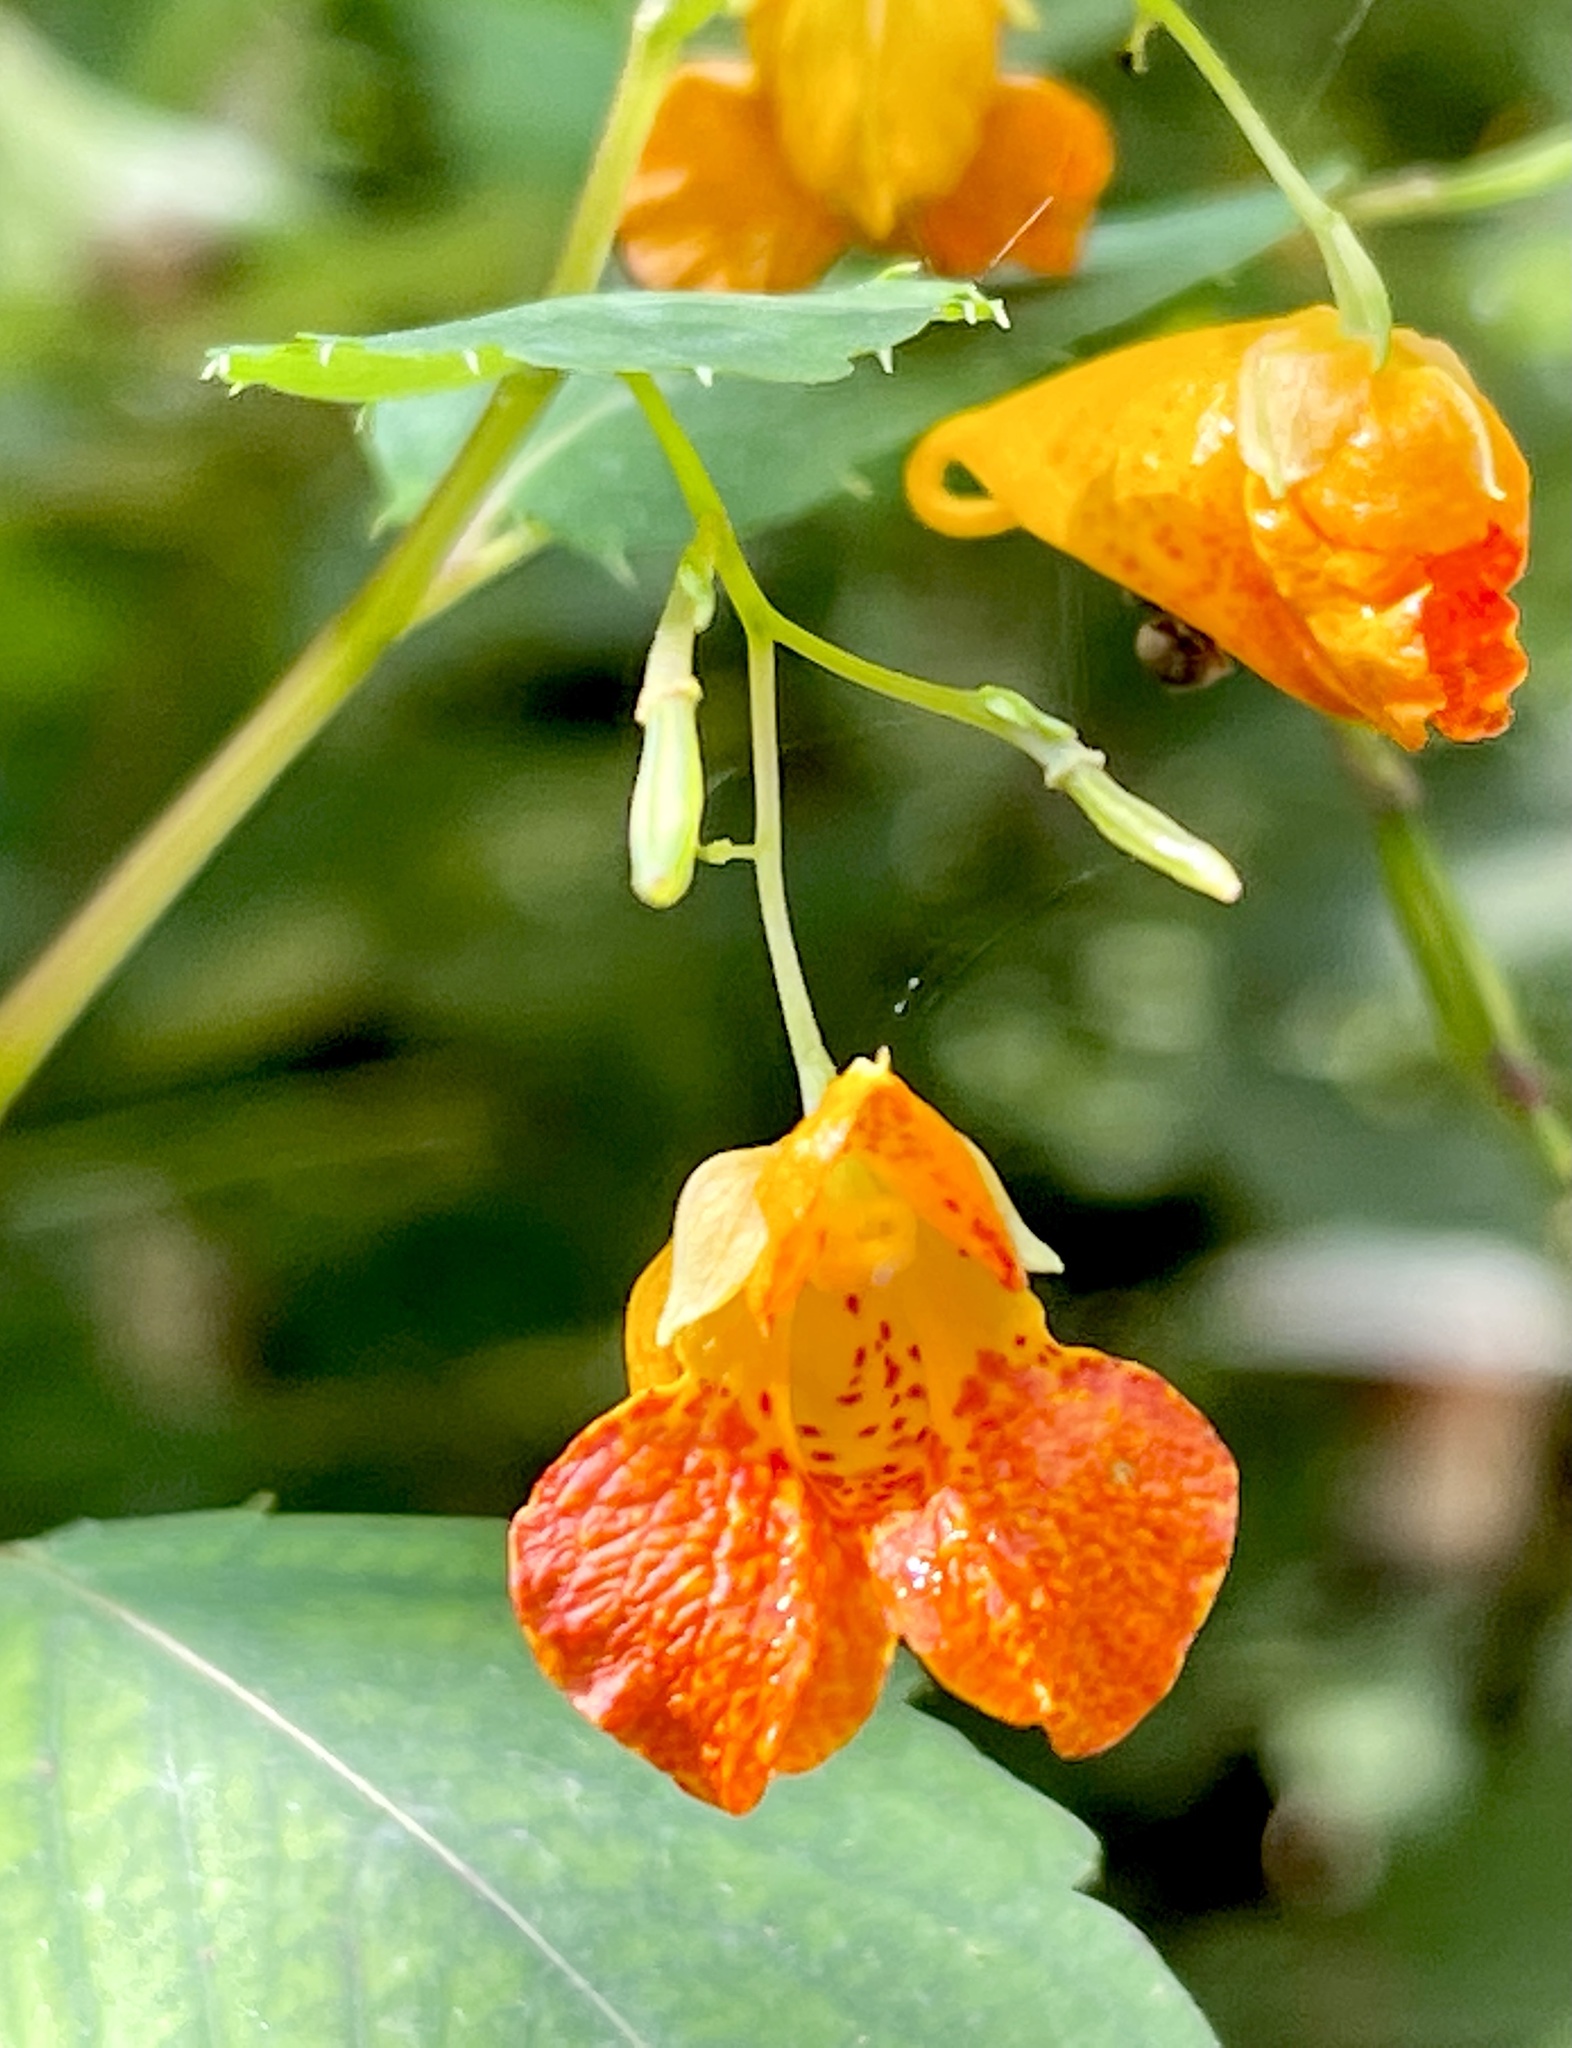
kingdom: Plantae
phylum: Tracheophyta
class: Magnoliopsida
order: Ericales
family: Balsaminaceae
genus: Impatiens
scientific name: Impatiens capensis
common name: Orange balsam
